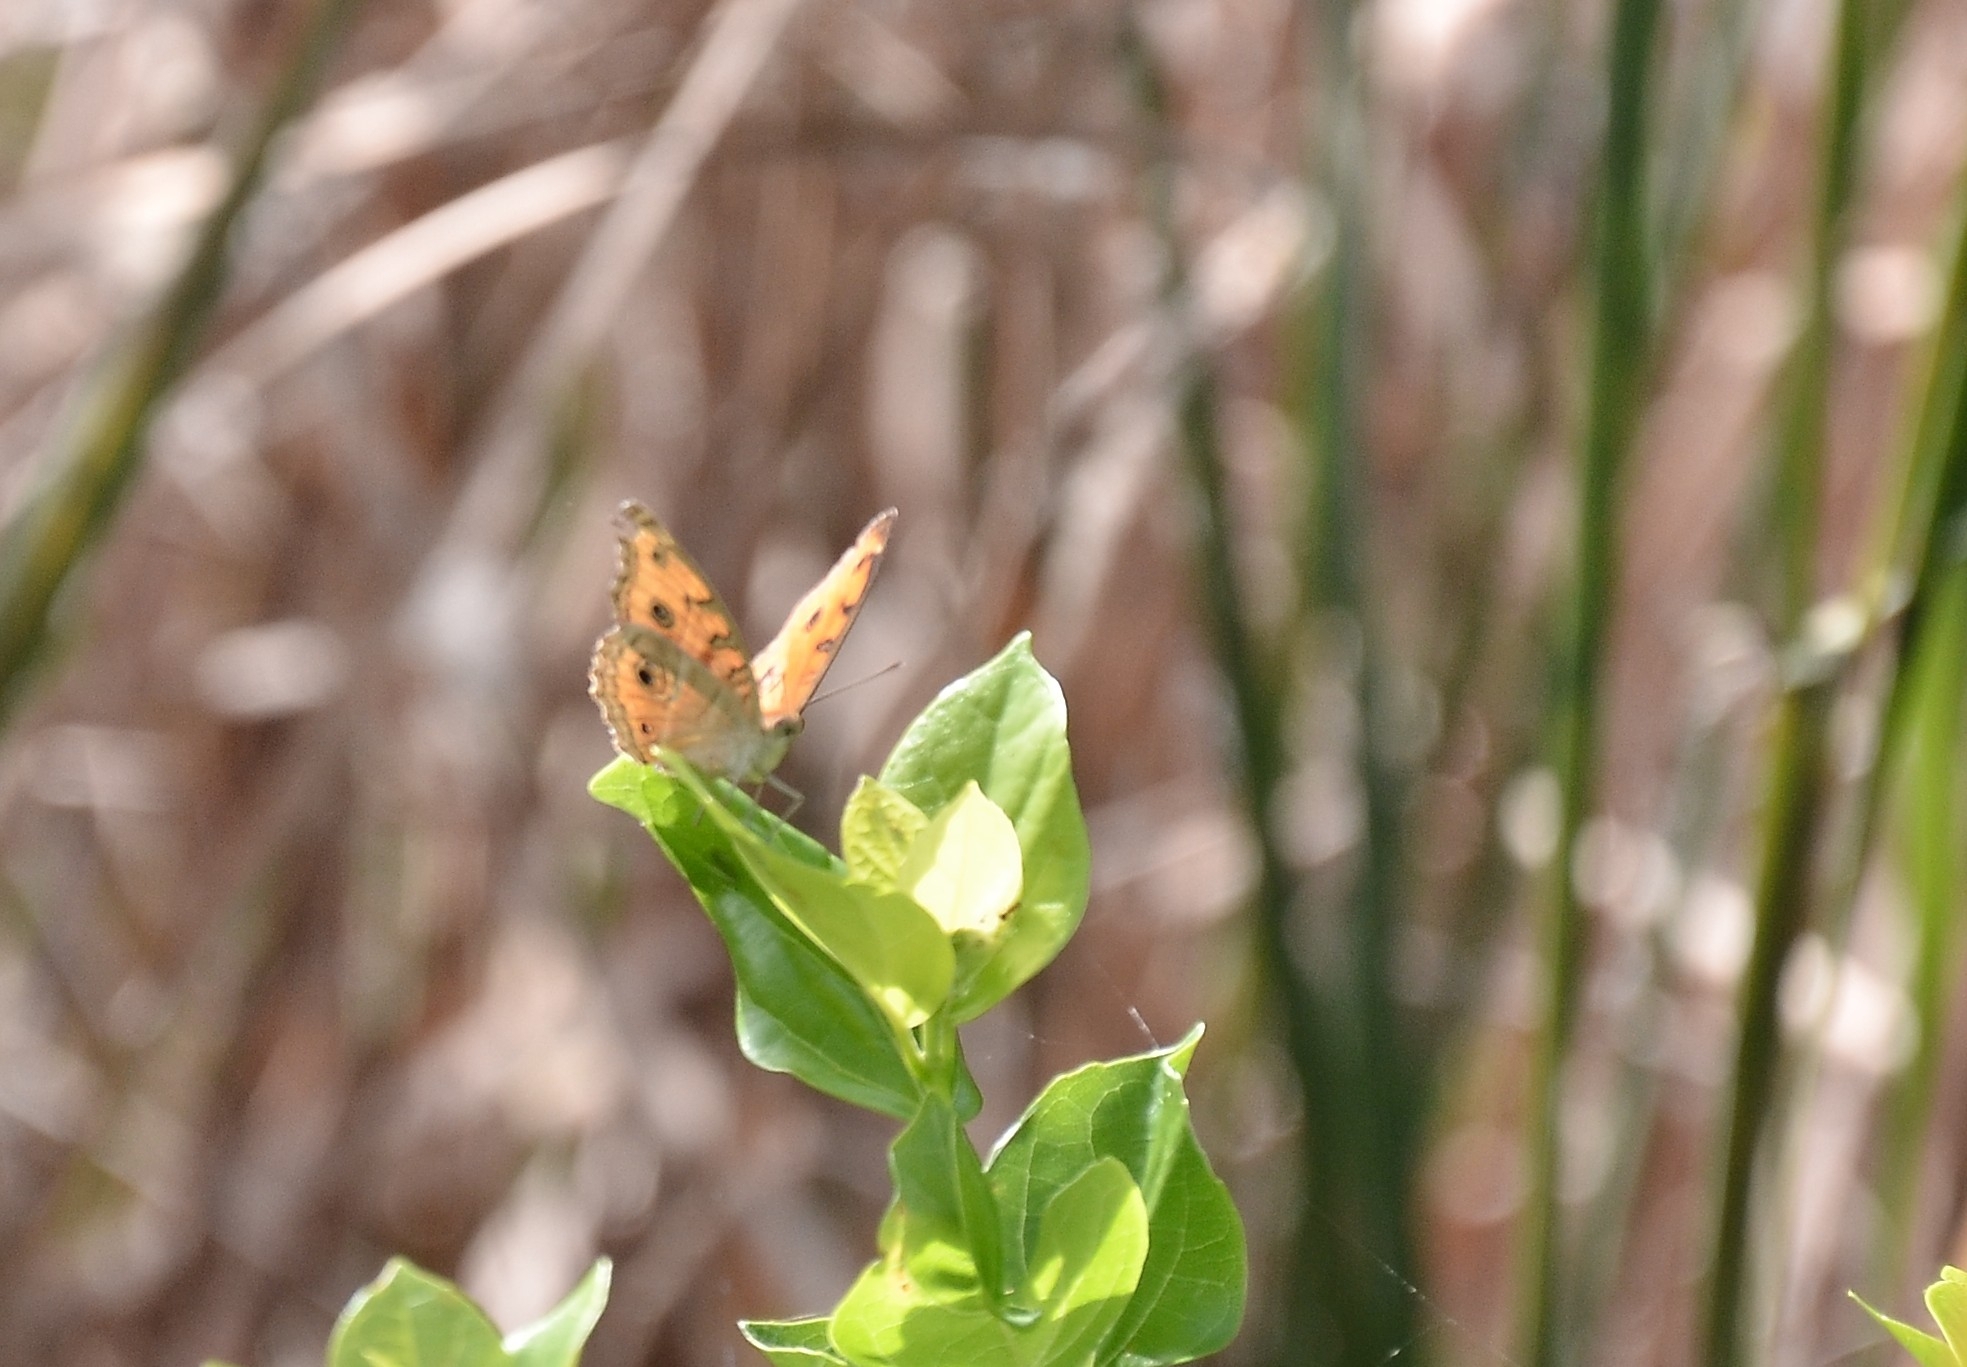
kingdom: Animalia
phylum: Arthropoda
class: Insecta
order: Lepidoptera
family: Nymphalidae
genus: Junonia
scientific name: Junonia almana
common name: Peacock pansy
